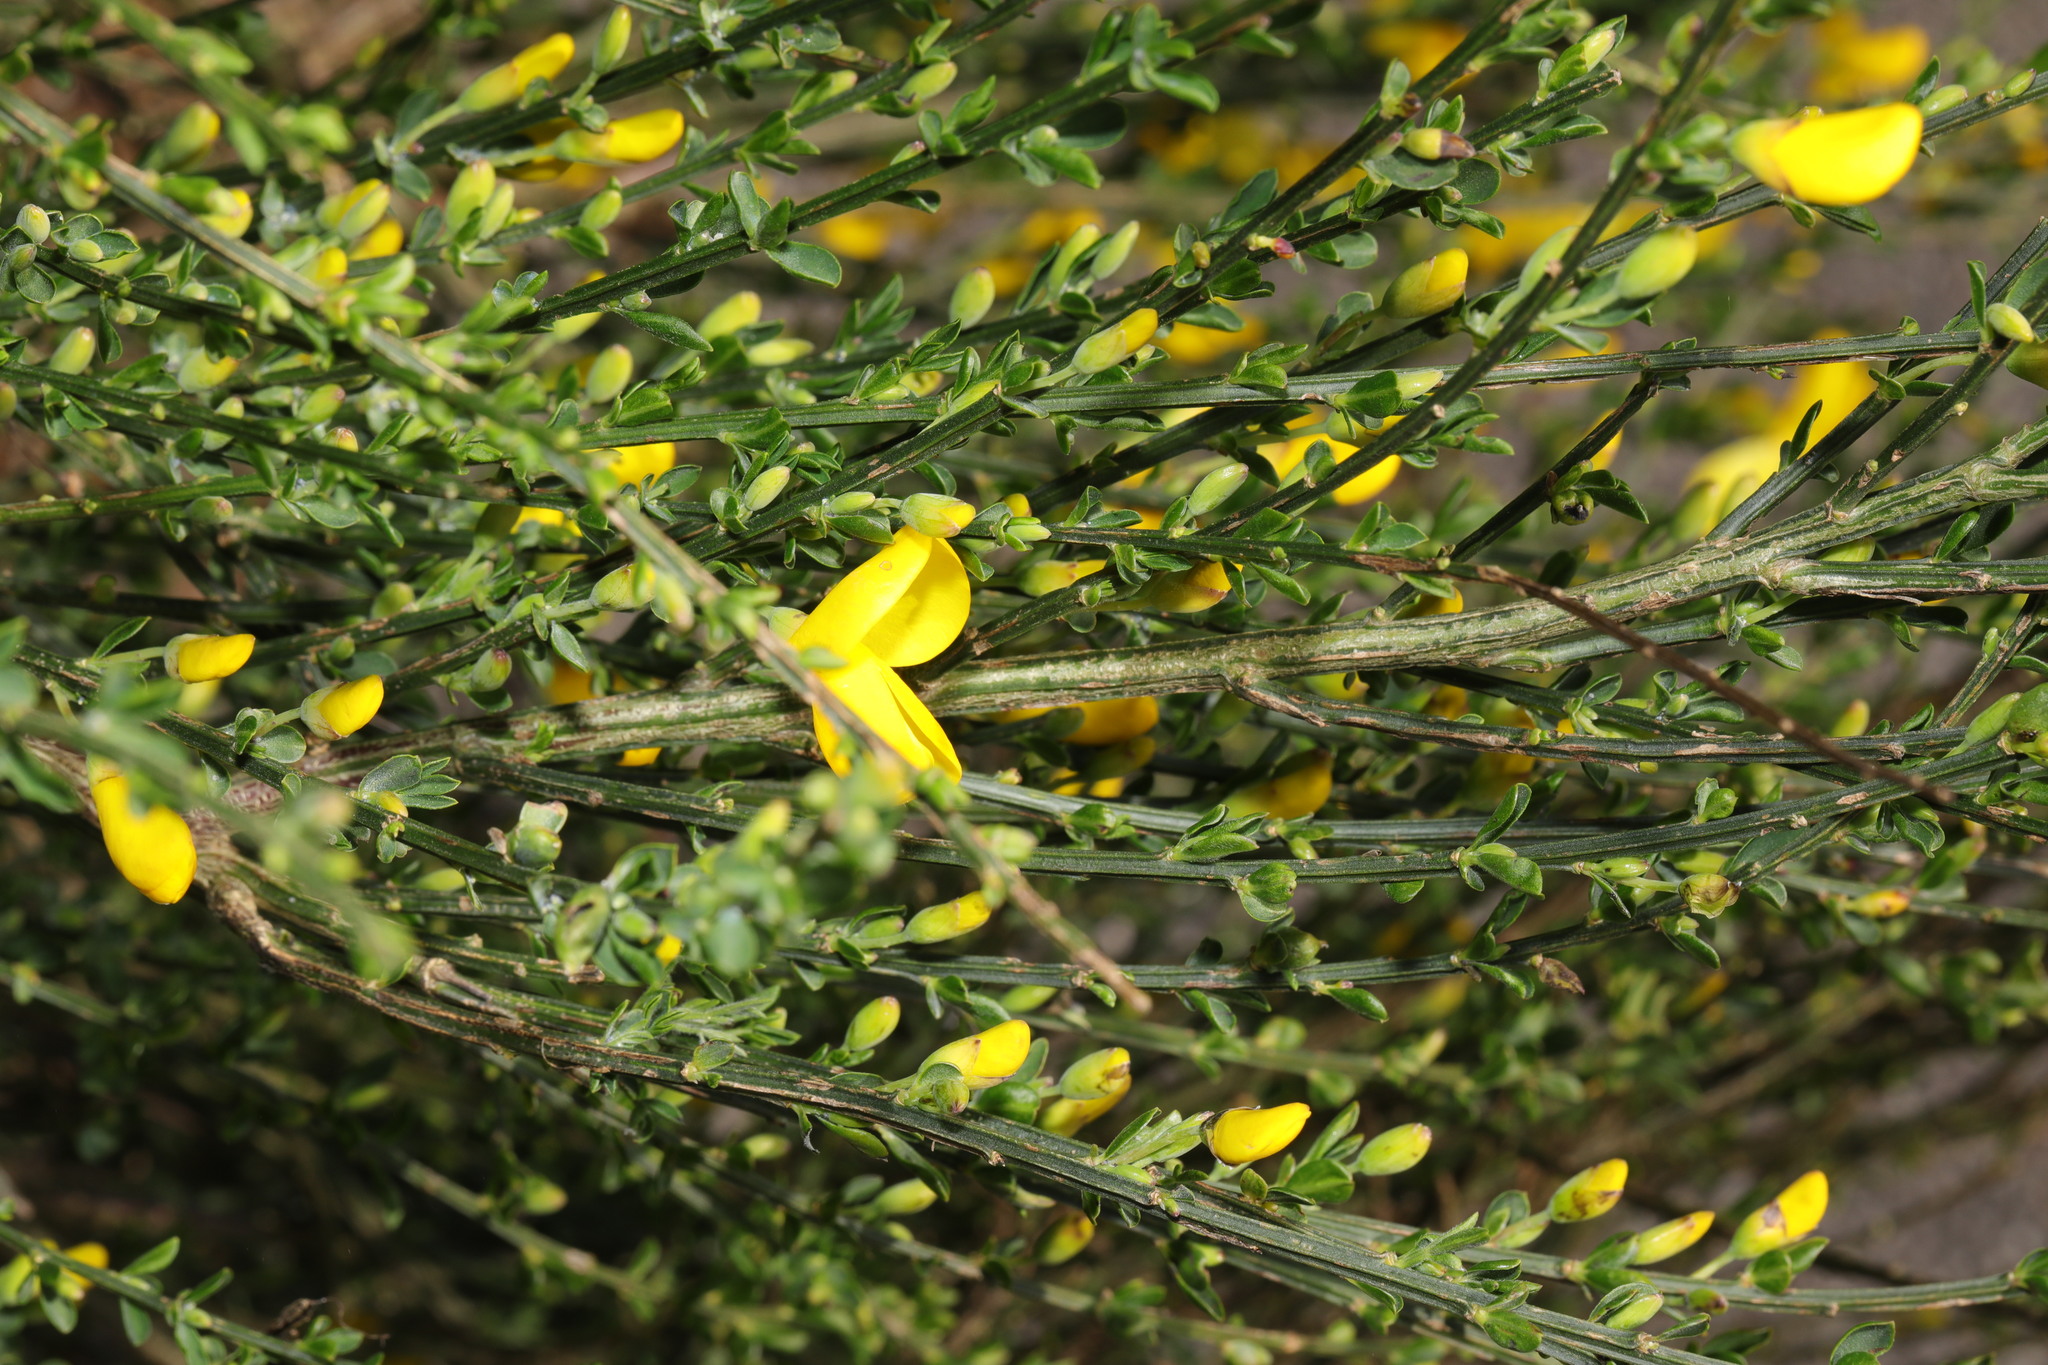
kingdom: Plantae
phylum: Tracheophyta
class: Magnoliopsida
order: Fabales
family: Fabaceae
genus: Cytisus
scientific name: Cytisus scoparius
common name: Scotch broom
